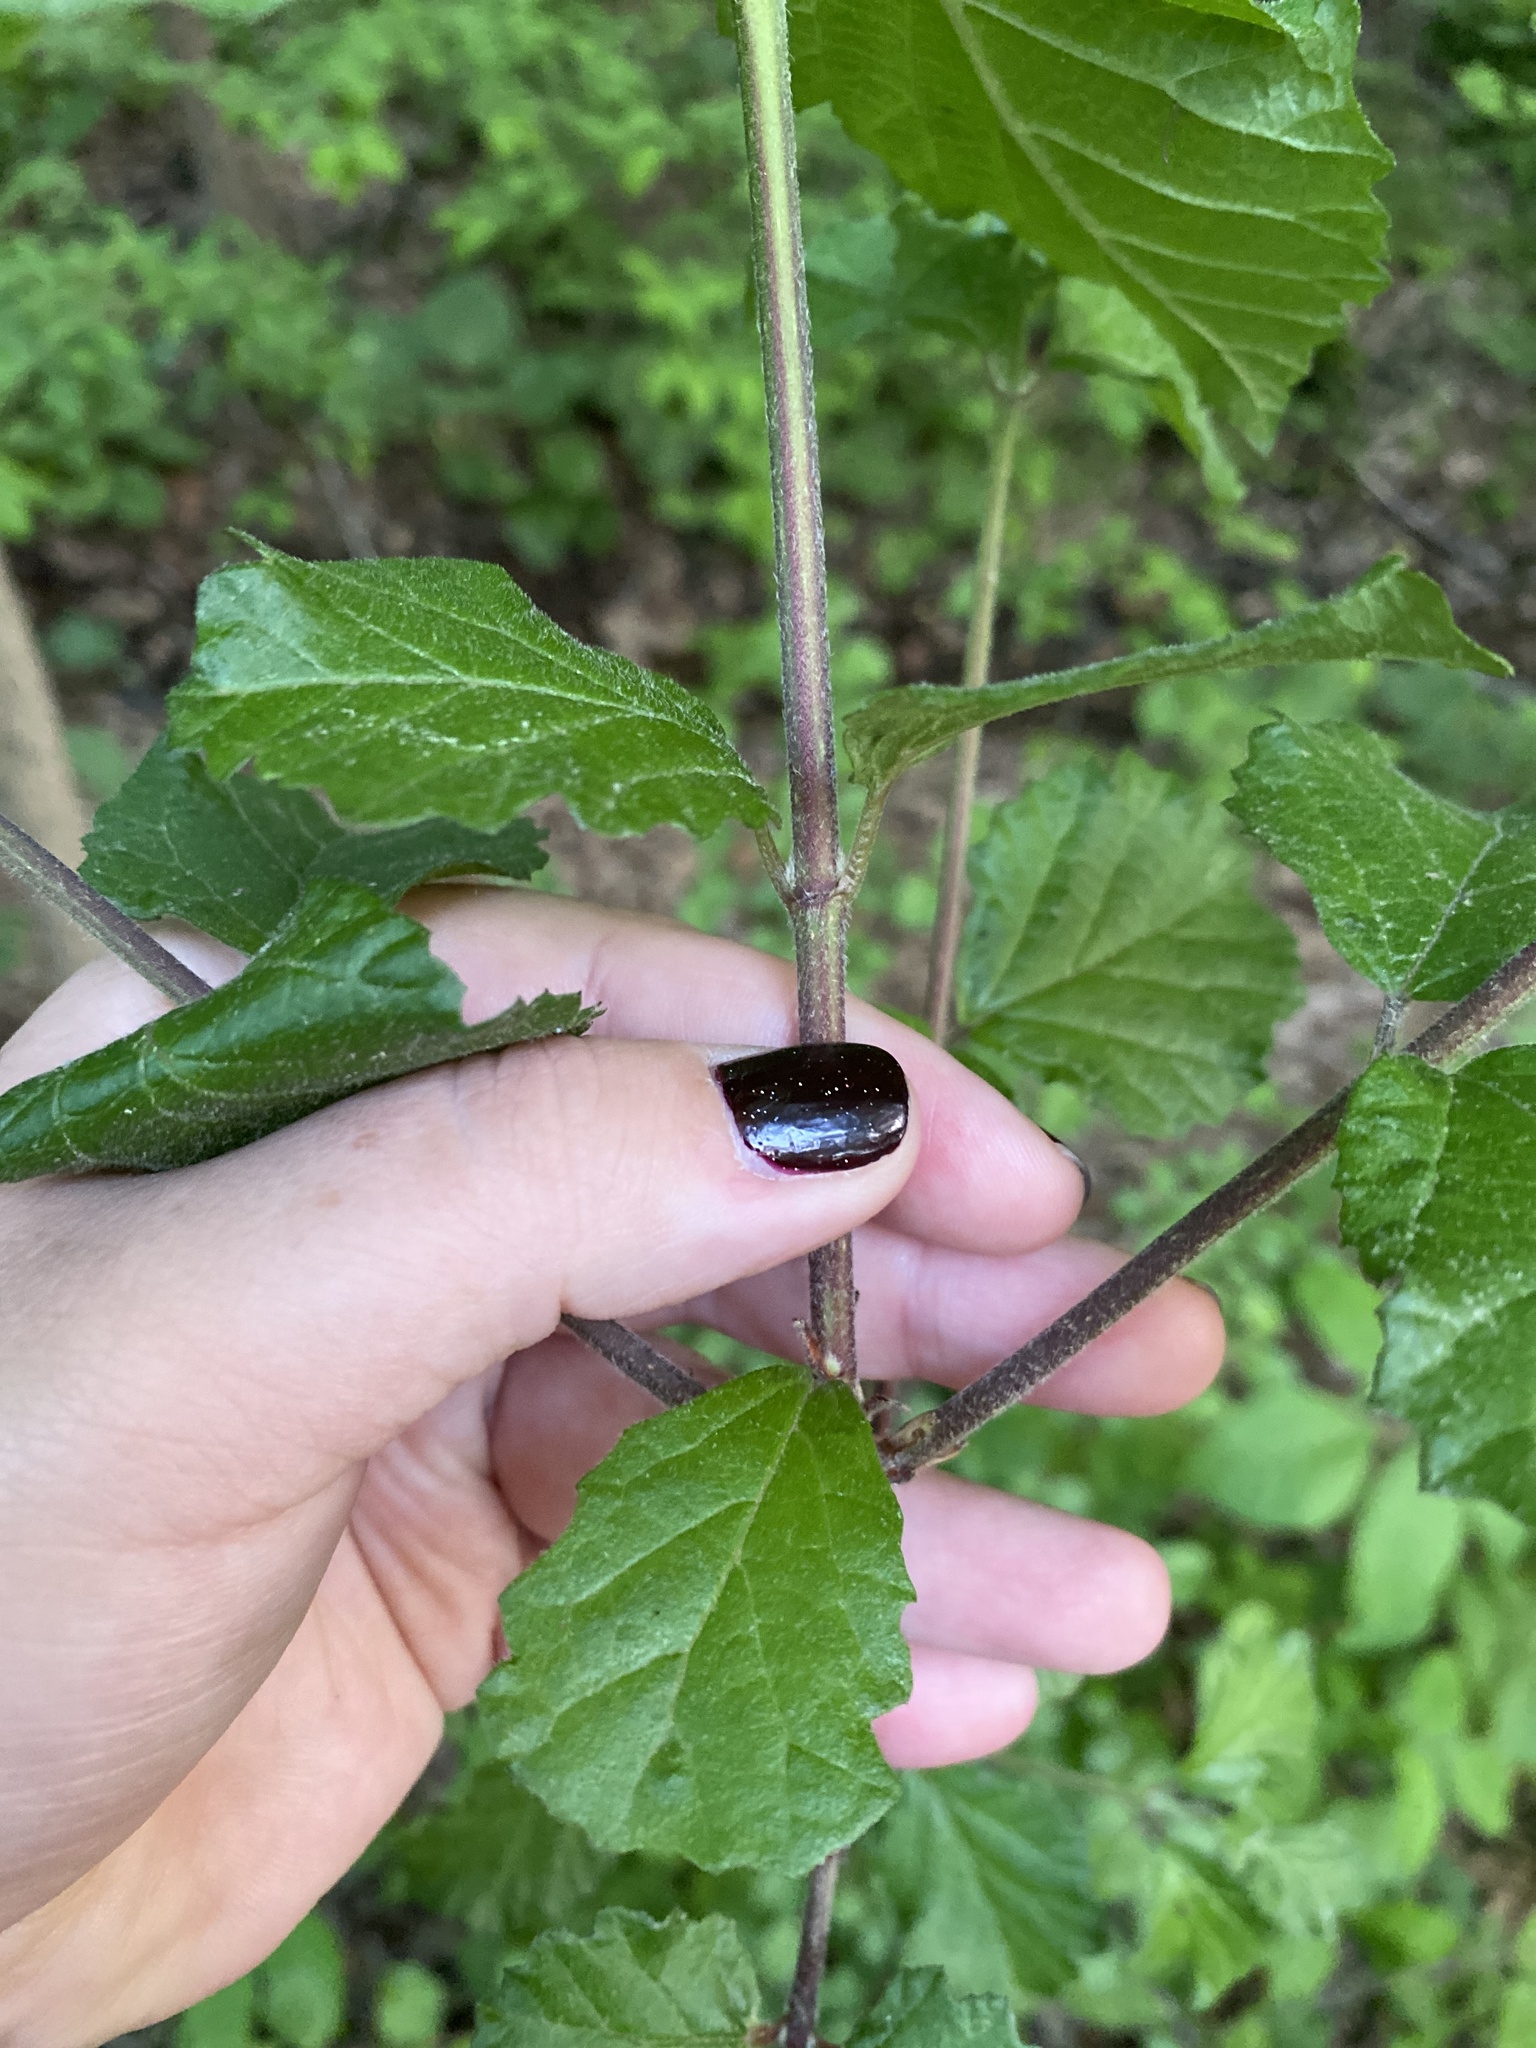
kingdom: Plantae
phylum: Tracheophyta
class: Magnoliopsida
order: Dipsacales
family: Viburnaceae
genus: Viburnum
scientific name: Viburnum dilatatum
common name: Linden arrowwood
